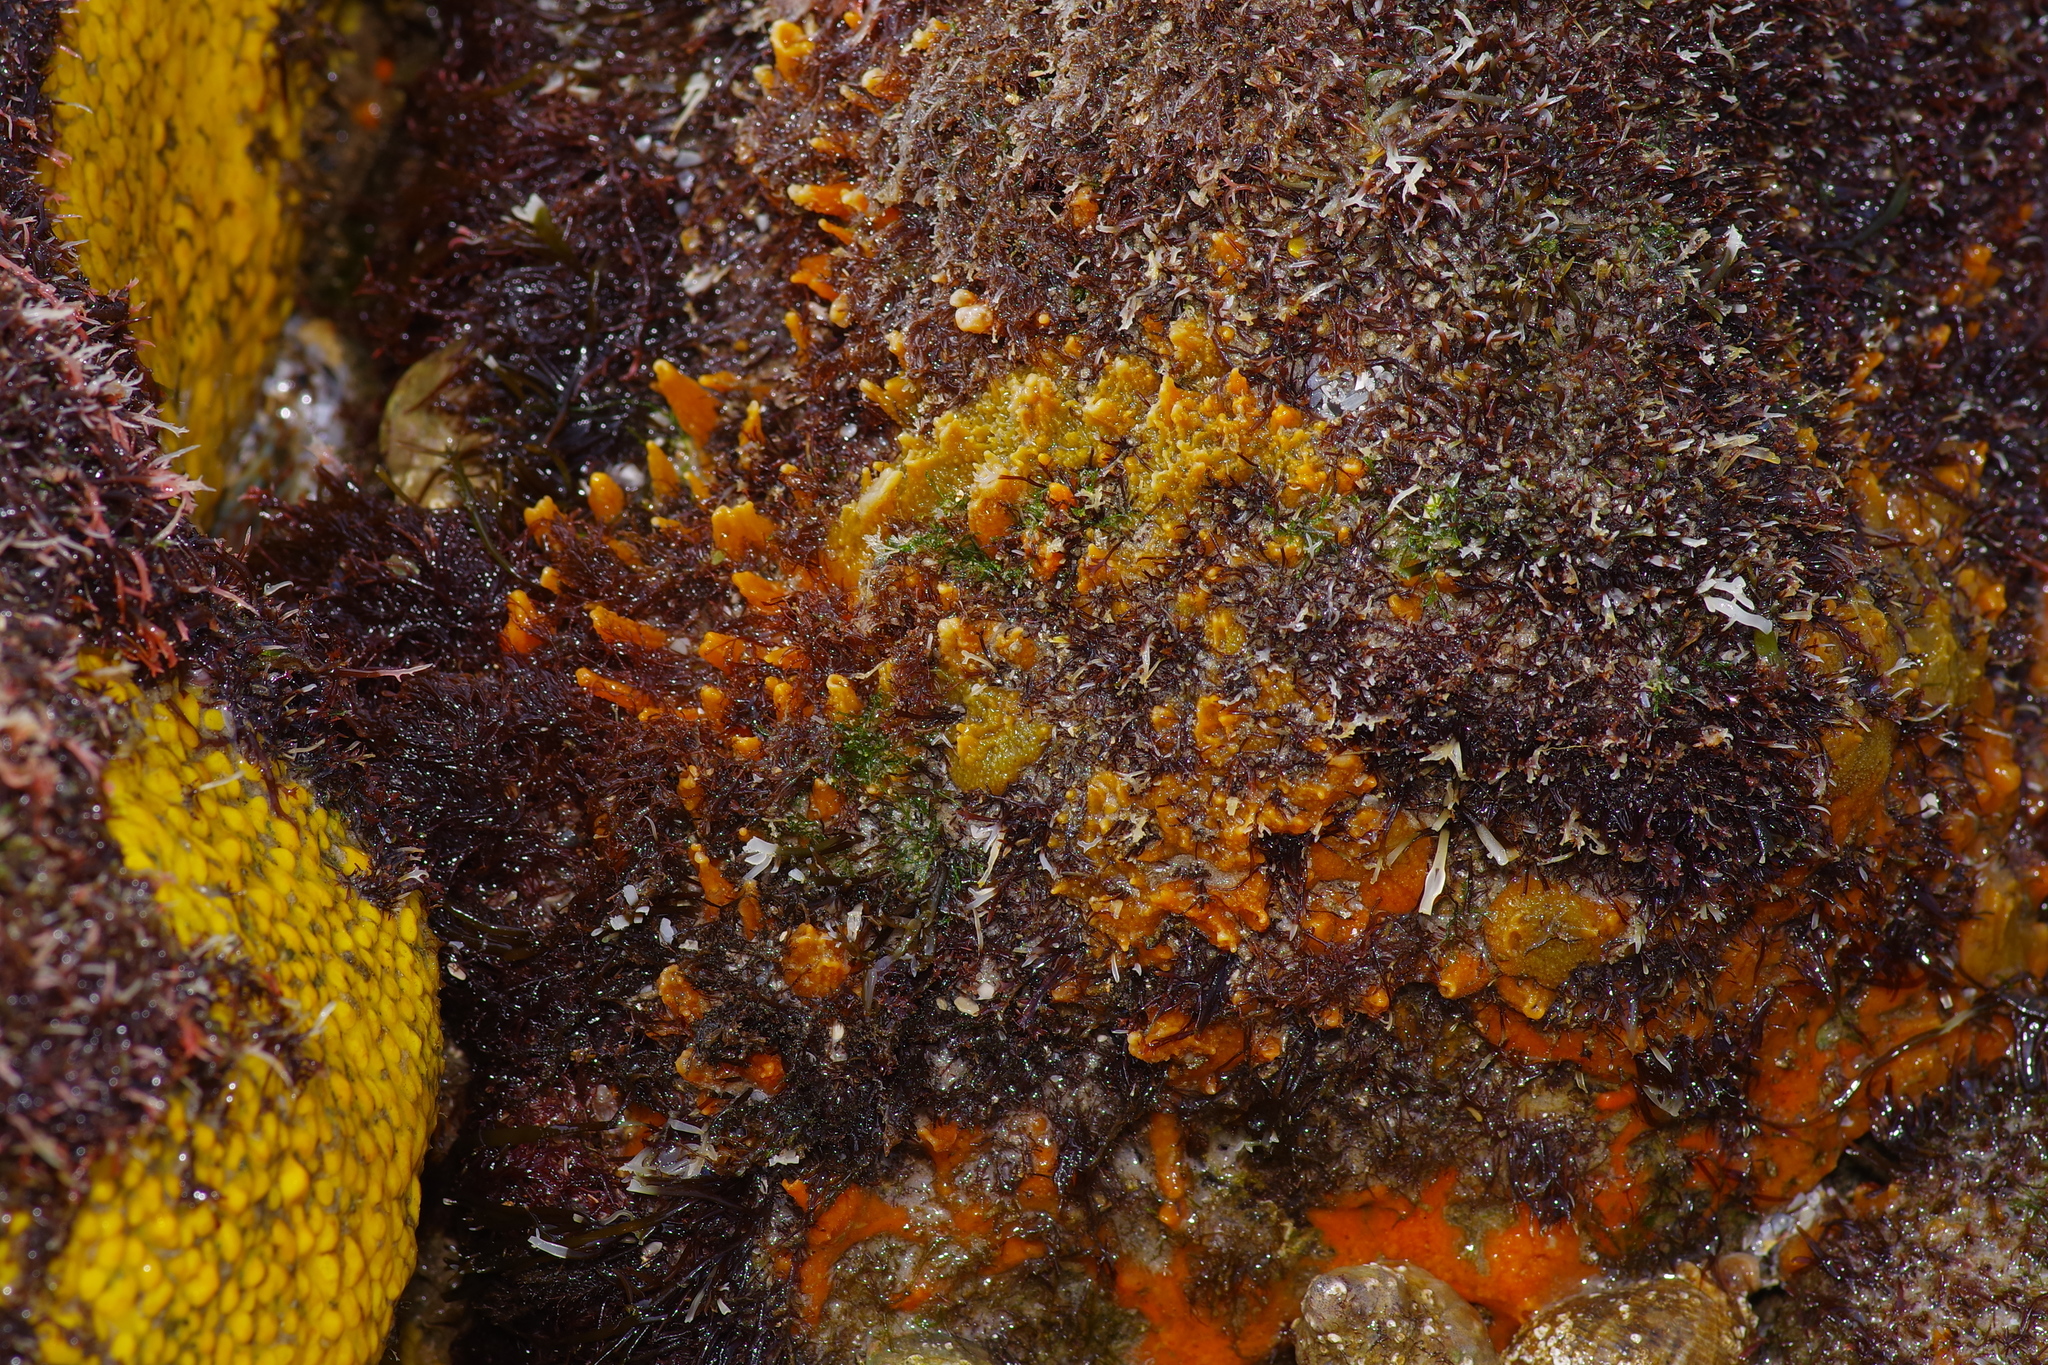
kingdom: Animalia
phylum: Porifera
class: Demospongiae
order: Suberitida
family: Halichondriidae
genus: Hymeniacidon
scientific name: Hymeniacidon heliophila
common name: Diurnal horny sponge
